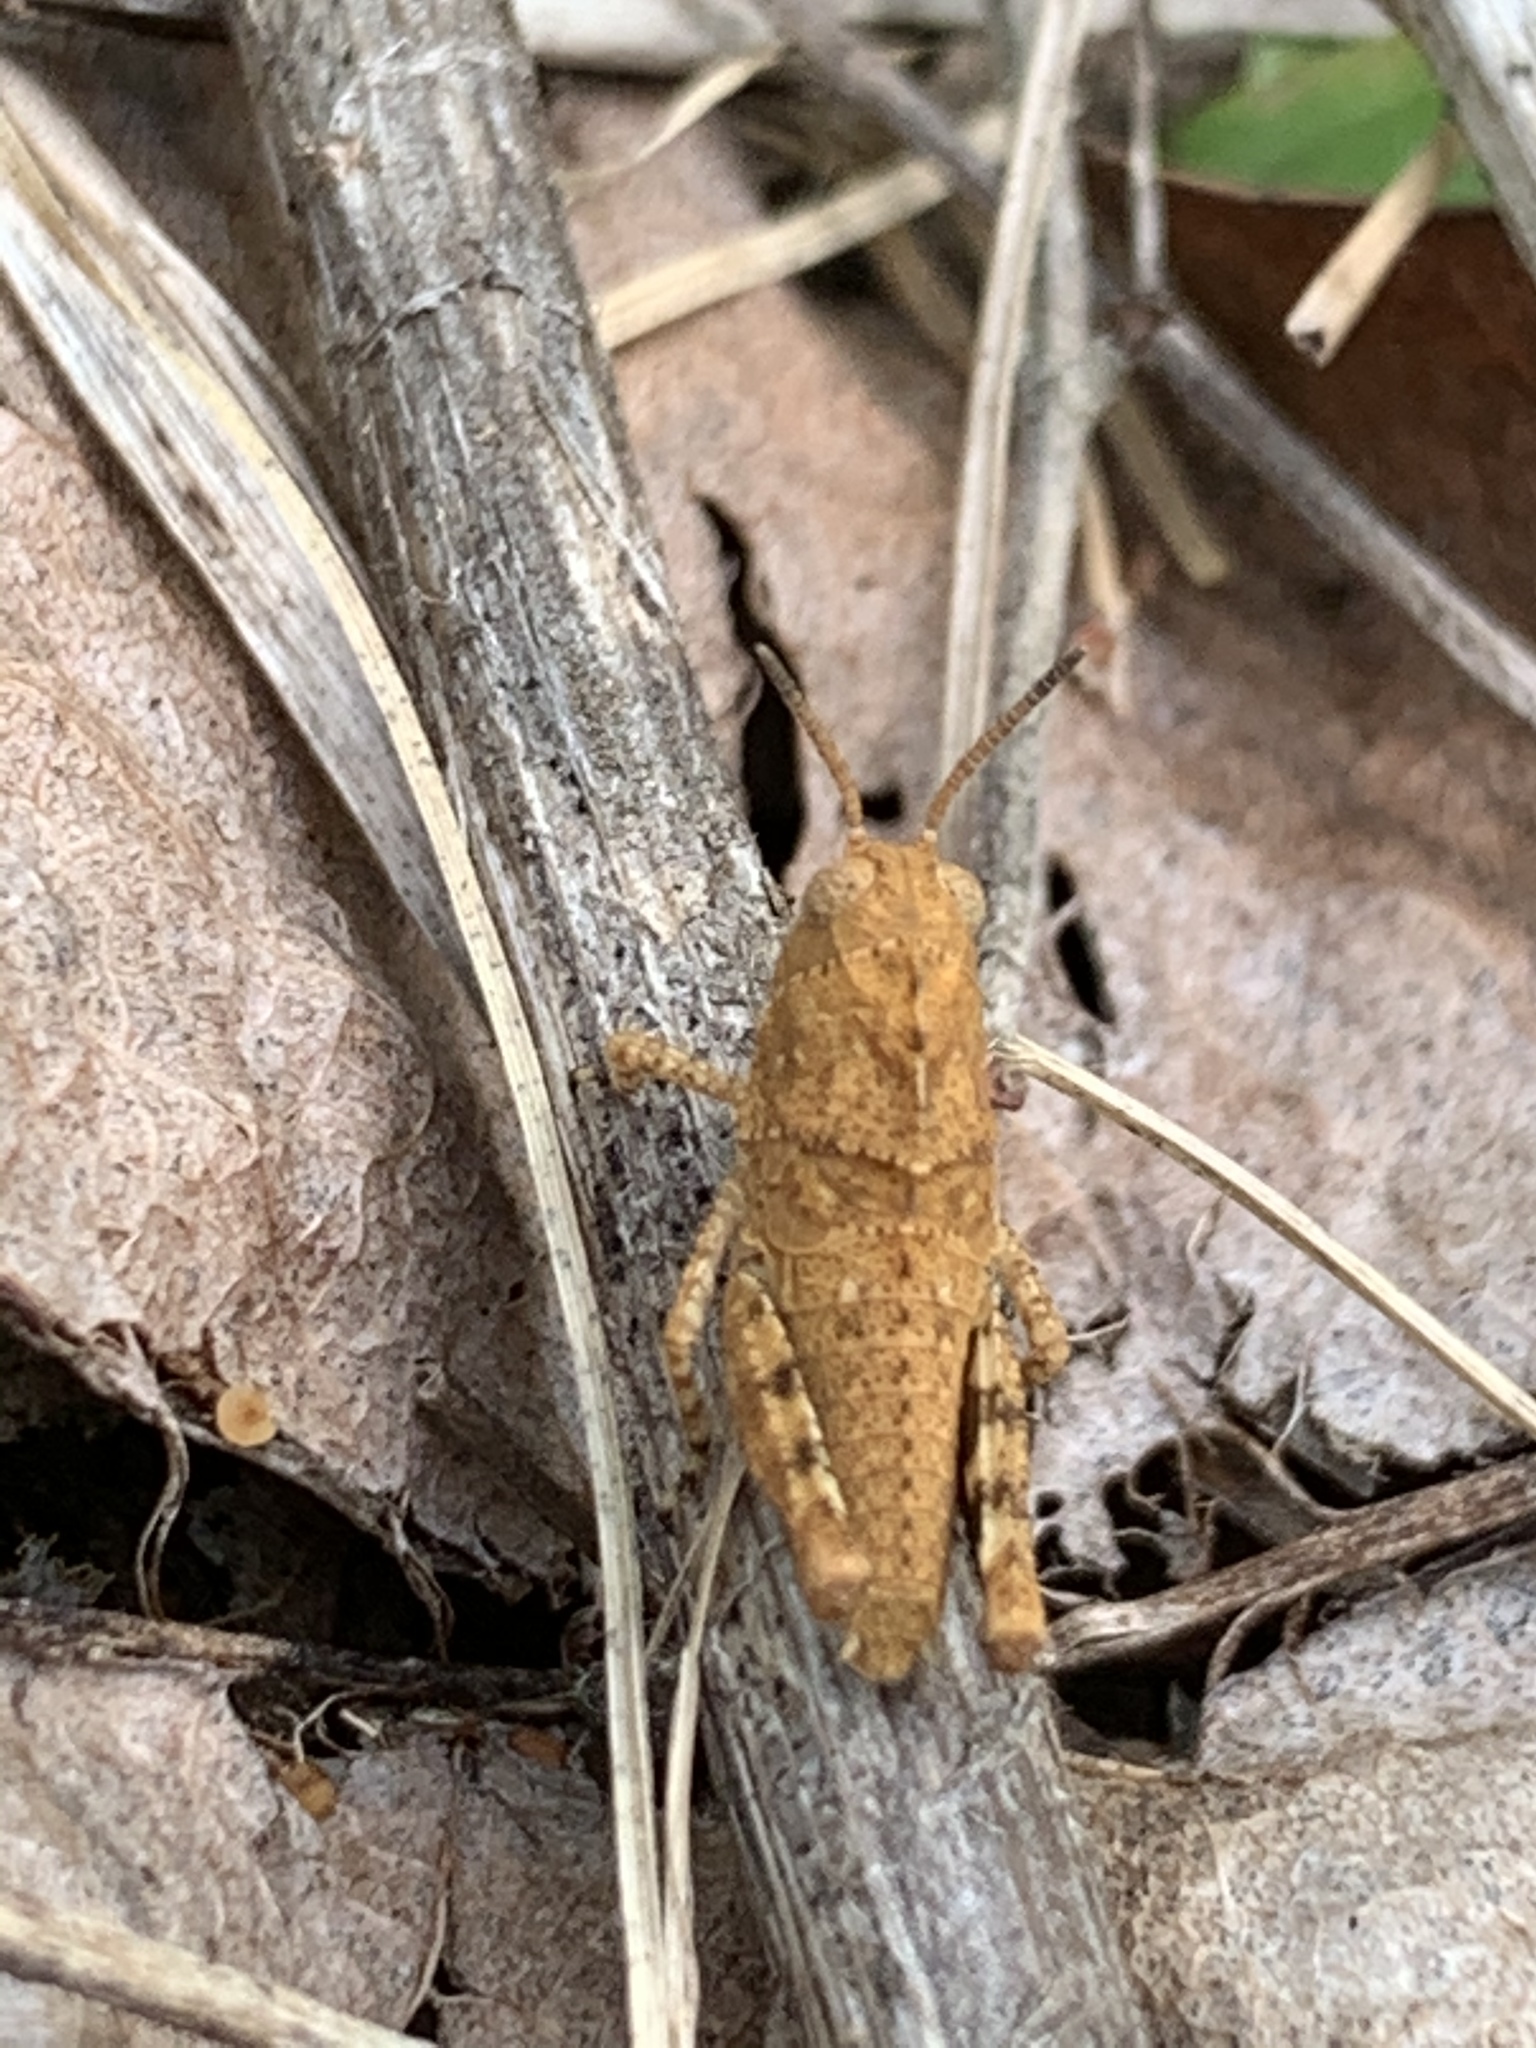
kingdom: Animalia
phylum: Arthropoda
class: Insecta
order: Orthoptera
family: Acrididae
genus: Dissosteira
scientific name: Dissosteira carolina
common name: Carolina grasshopper
